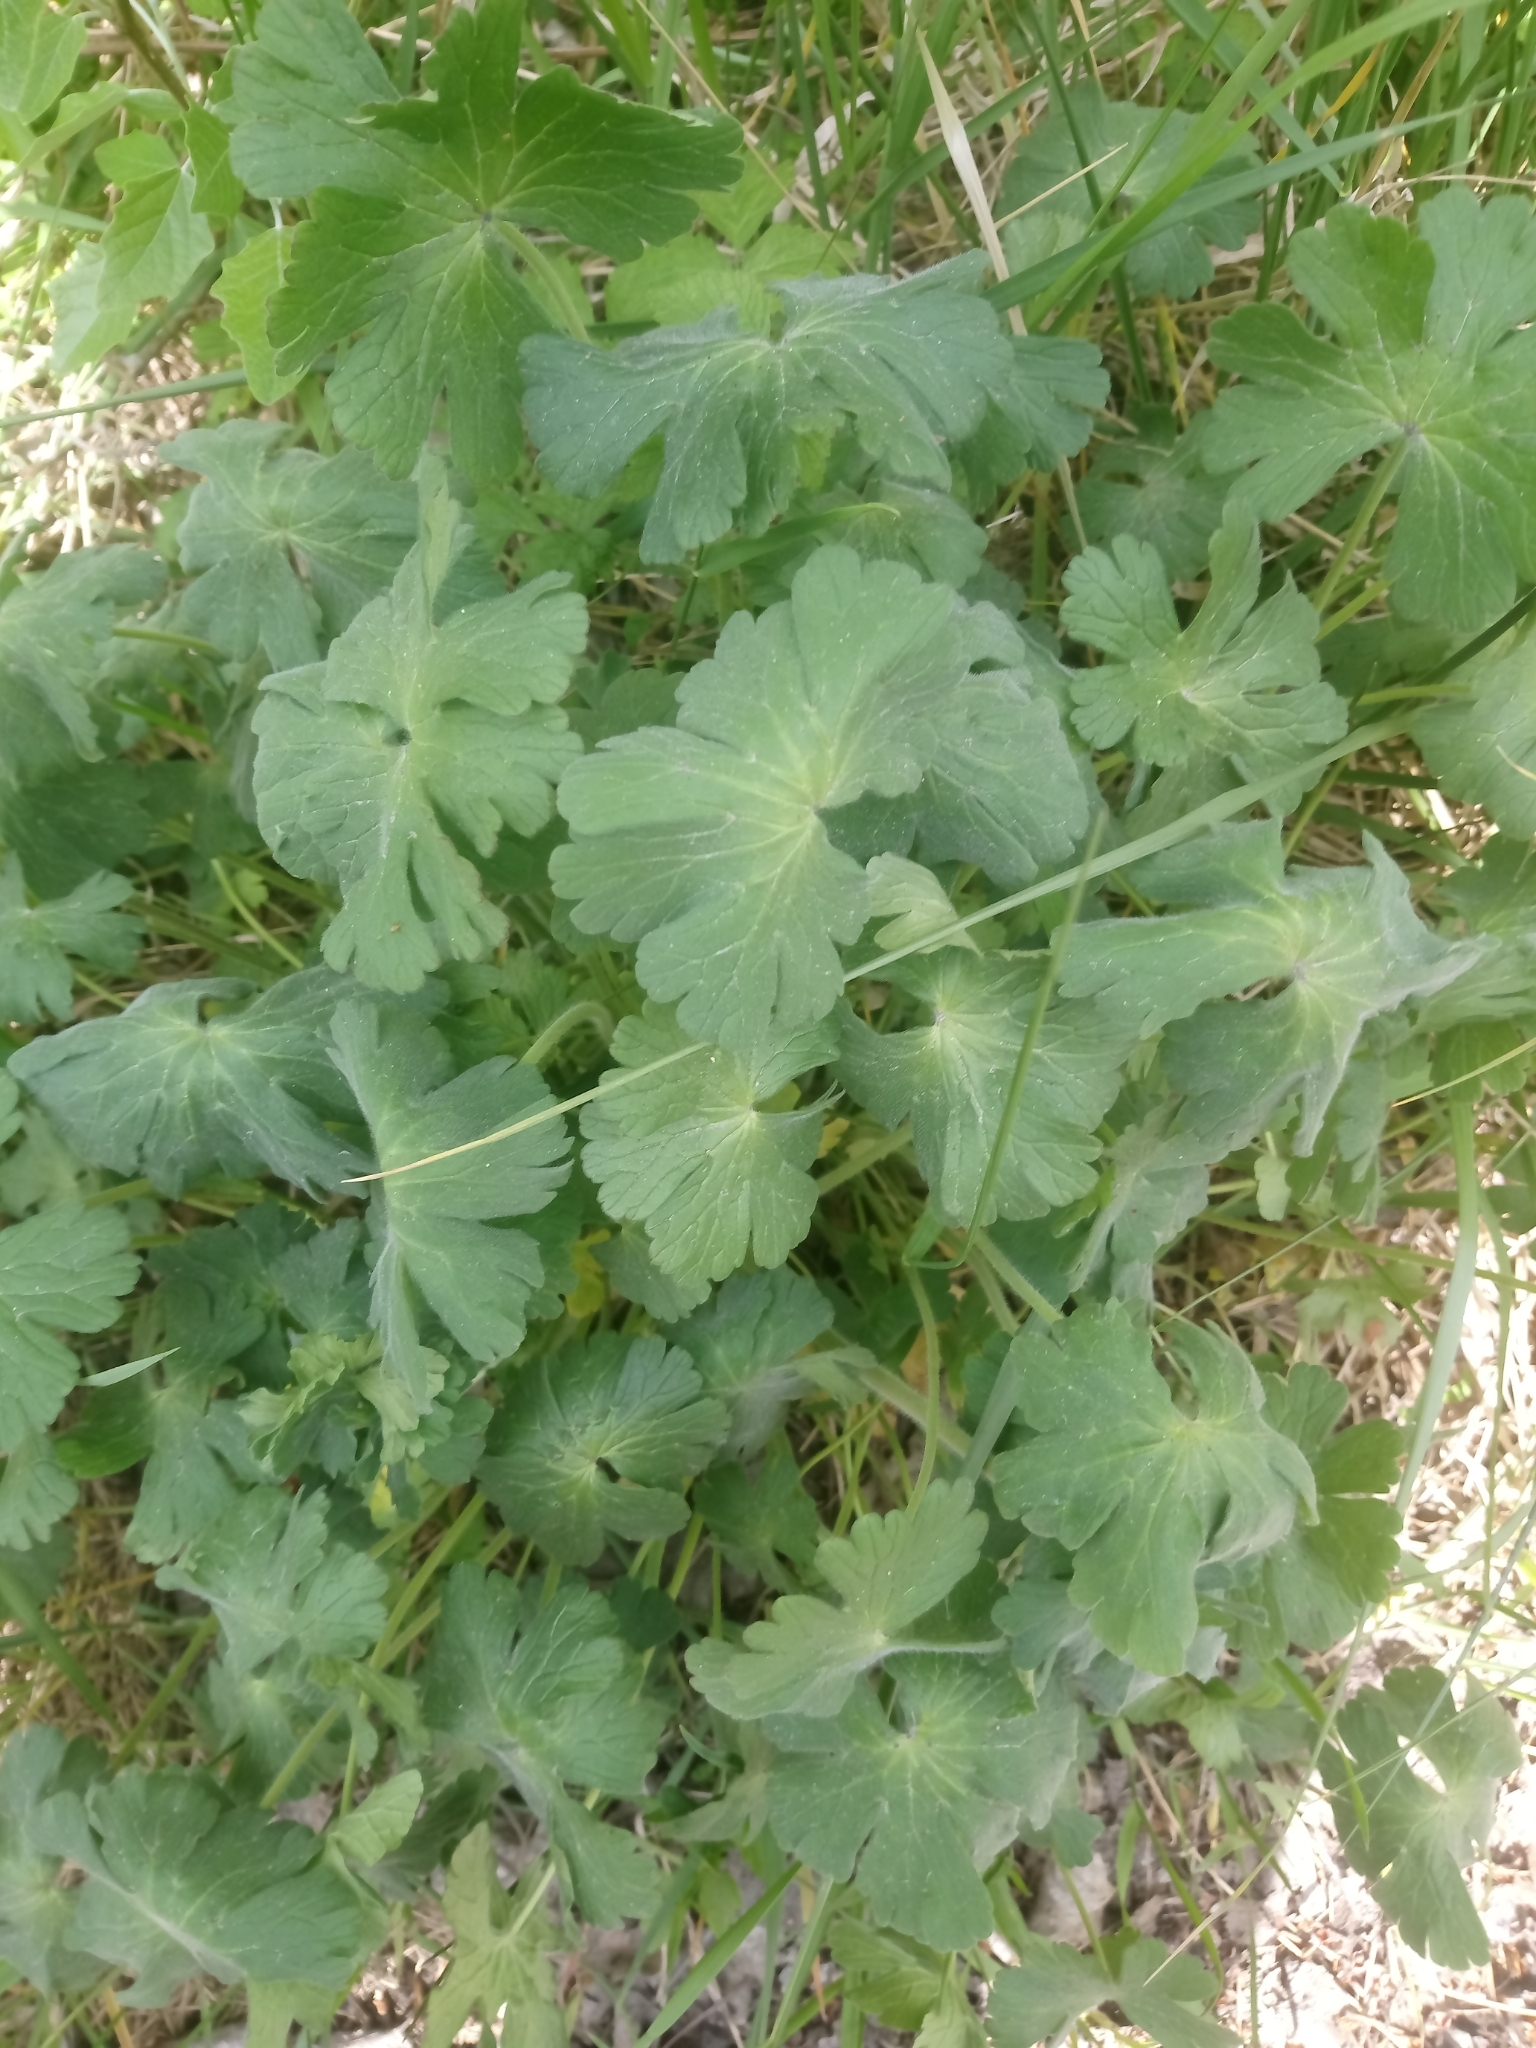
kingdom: Plantae
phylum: Tracheophyta
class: Magnoliopsida
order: Geraniales
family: Geraniaceae
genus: Geranium
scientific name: Geranium pyrenaicum
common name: Hedgerow crane's-bill
